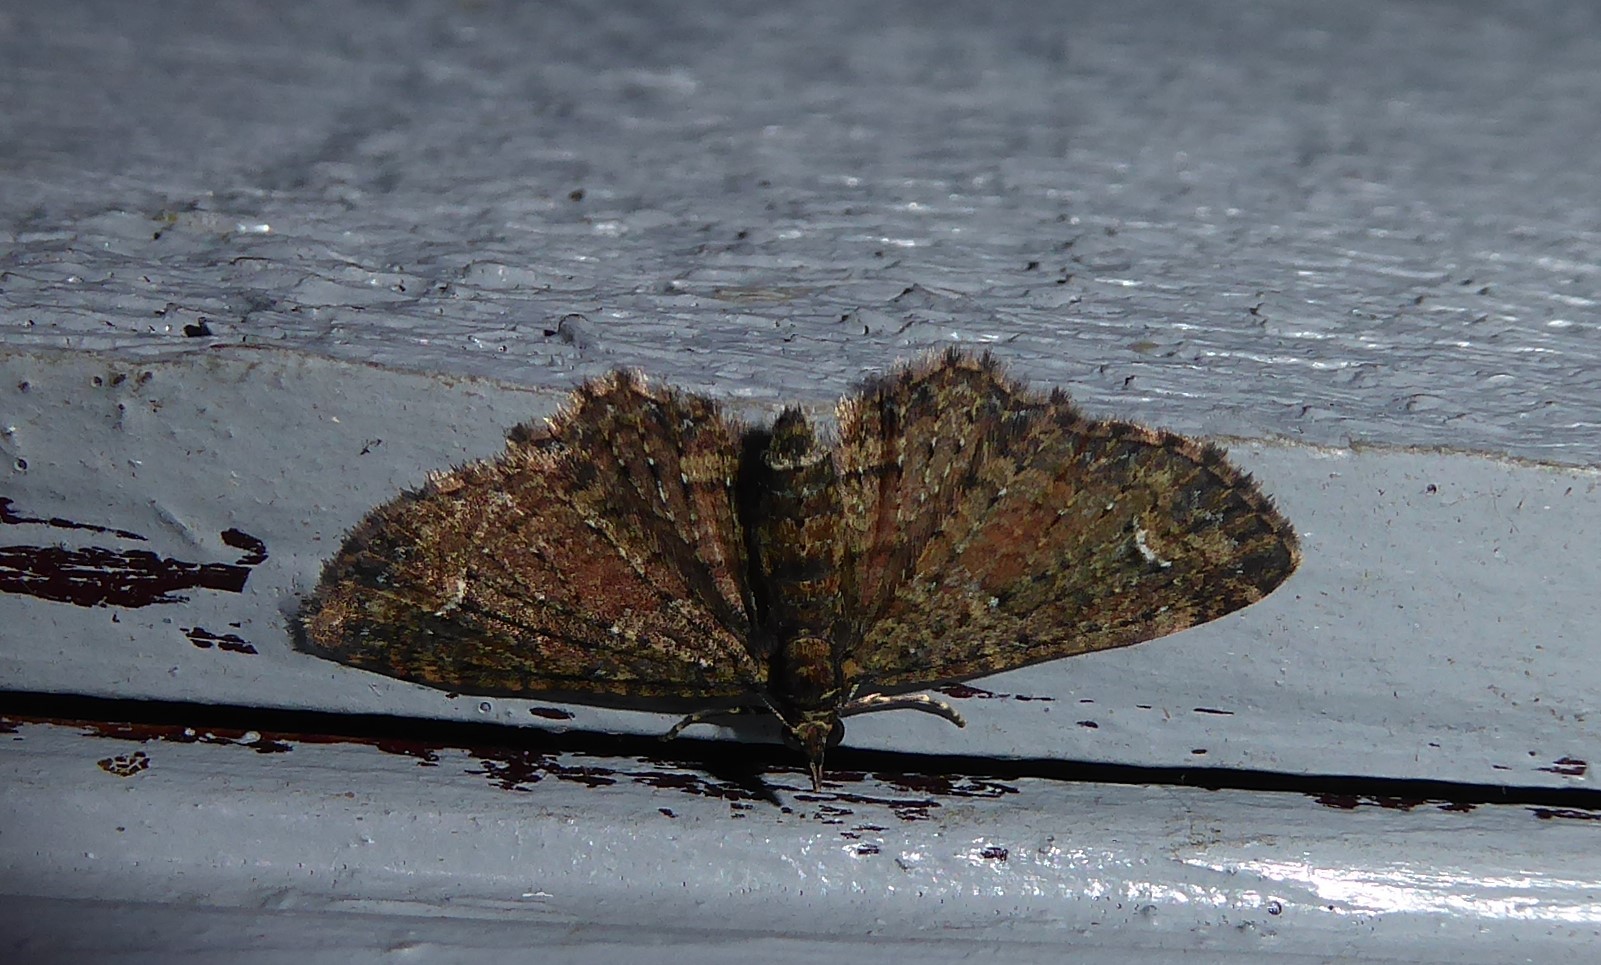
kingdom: Animalia
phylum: Arthropoda
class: Insecta
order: Lepidoptera
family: Geometridae
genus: Pasiphilodes
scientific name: Pasiphilodes testulata
